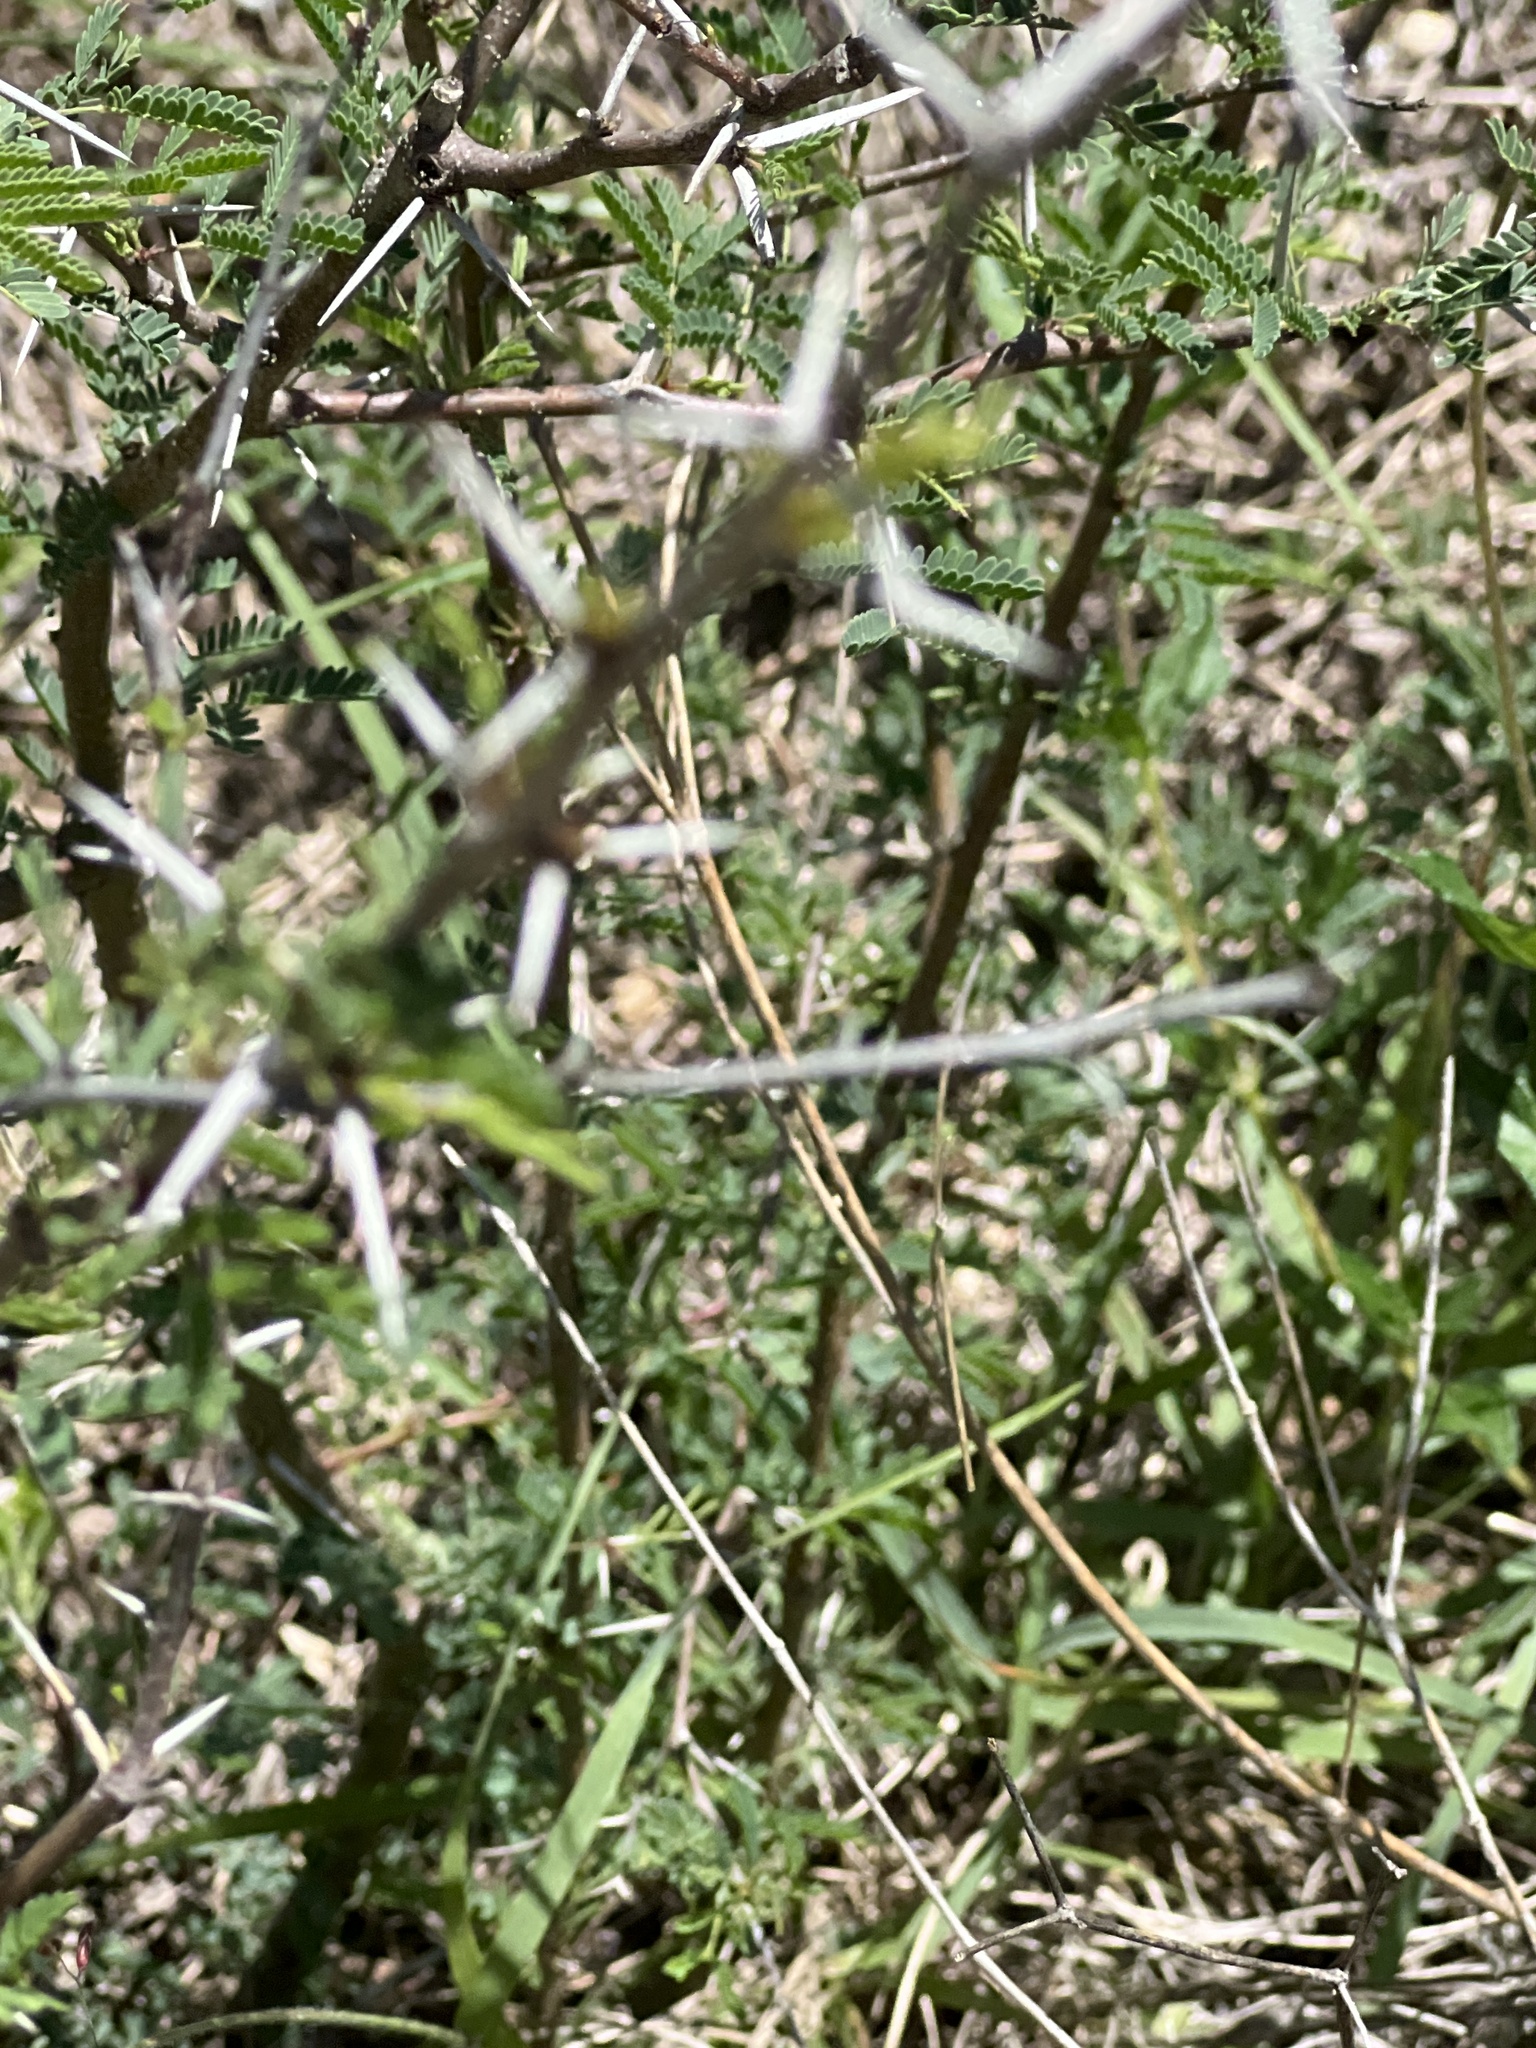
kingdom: Plantae
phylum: Tracheophyta
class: Magnoliopsida
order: Fabales
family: Fabaceae
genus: Vachellia
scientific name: Vachellia farnesiana
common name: Sweet acacia
